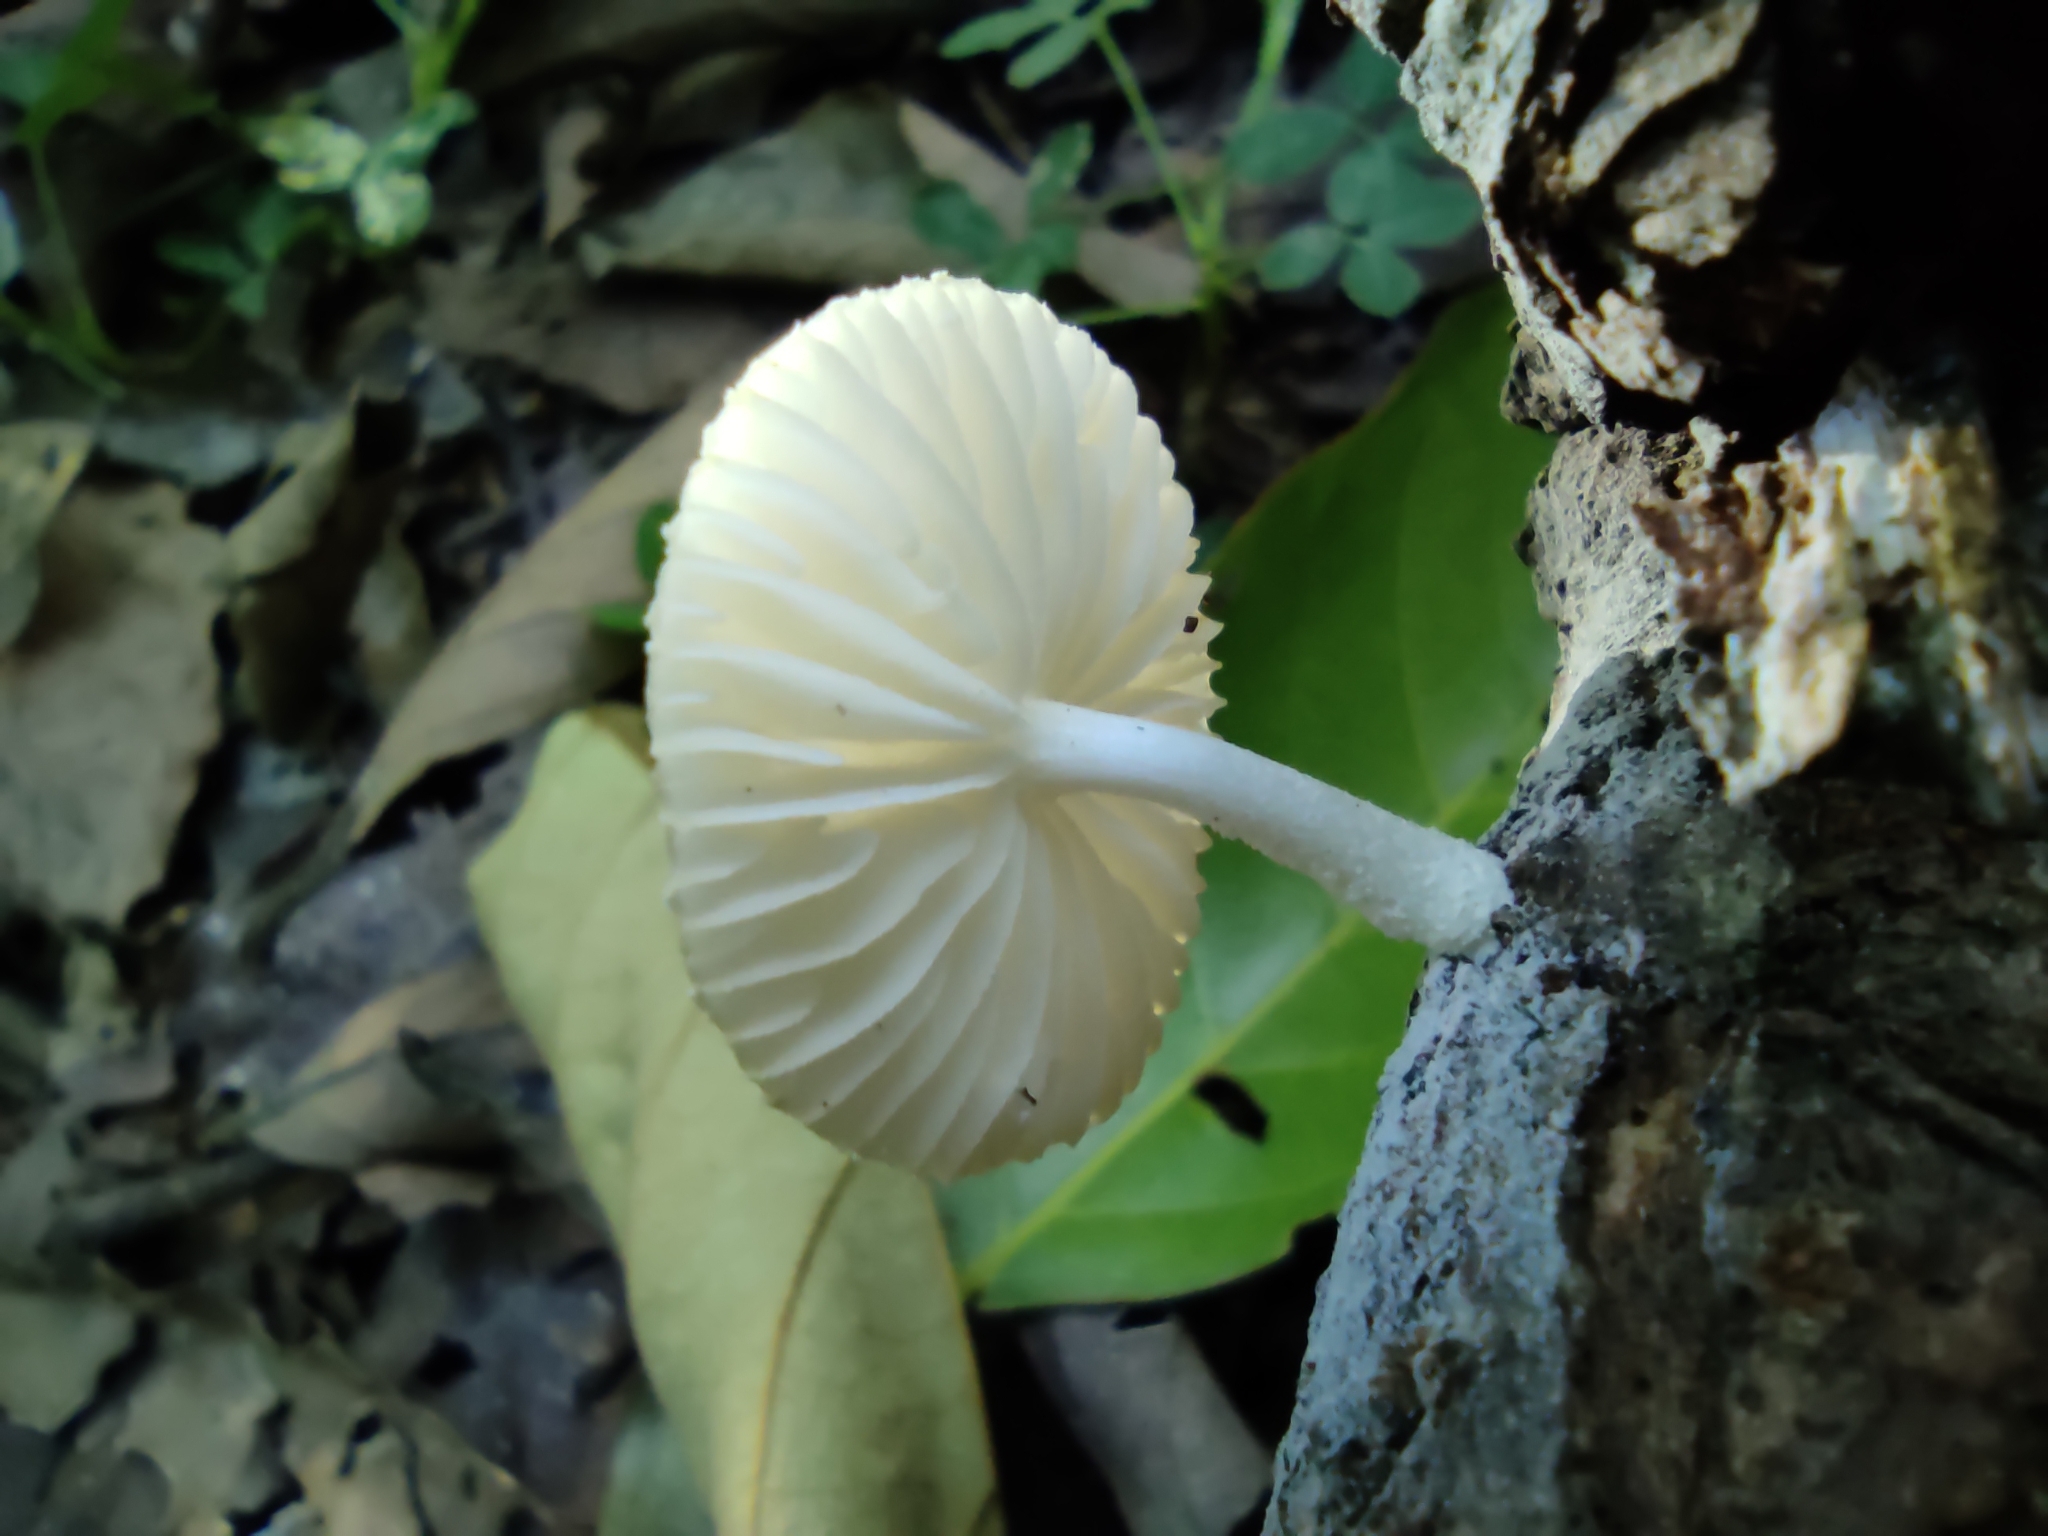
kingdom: Fungi
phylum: Basidiomycota
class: Agaricomycetes
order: Agaricales
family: Physalacriaceae
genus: Oudemansiella
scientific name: Oudemansiella canarii
